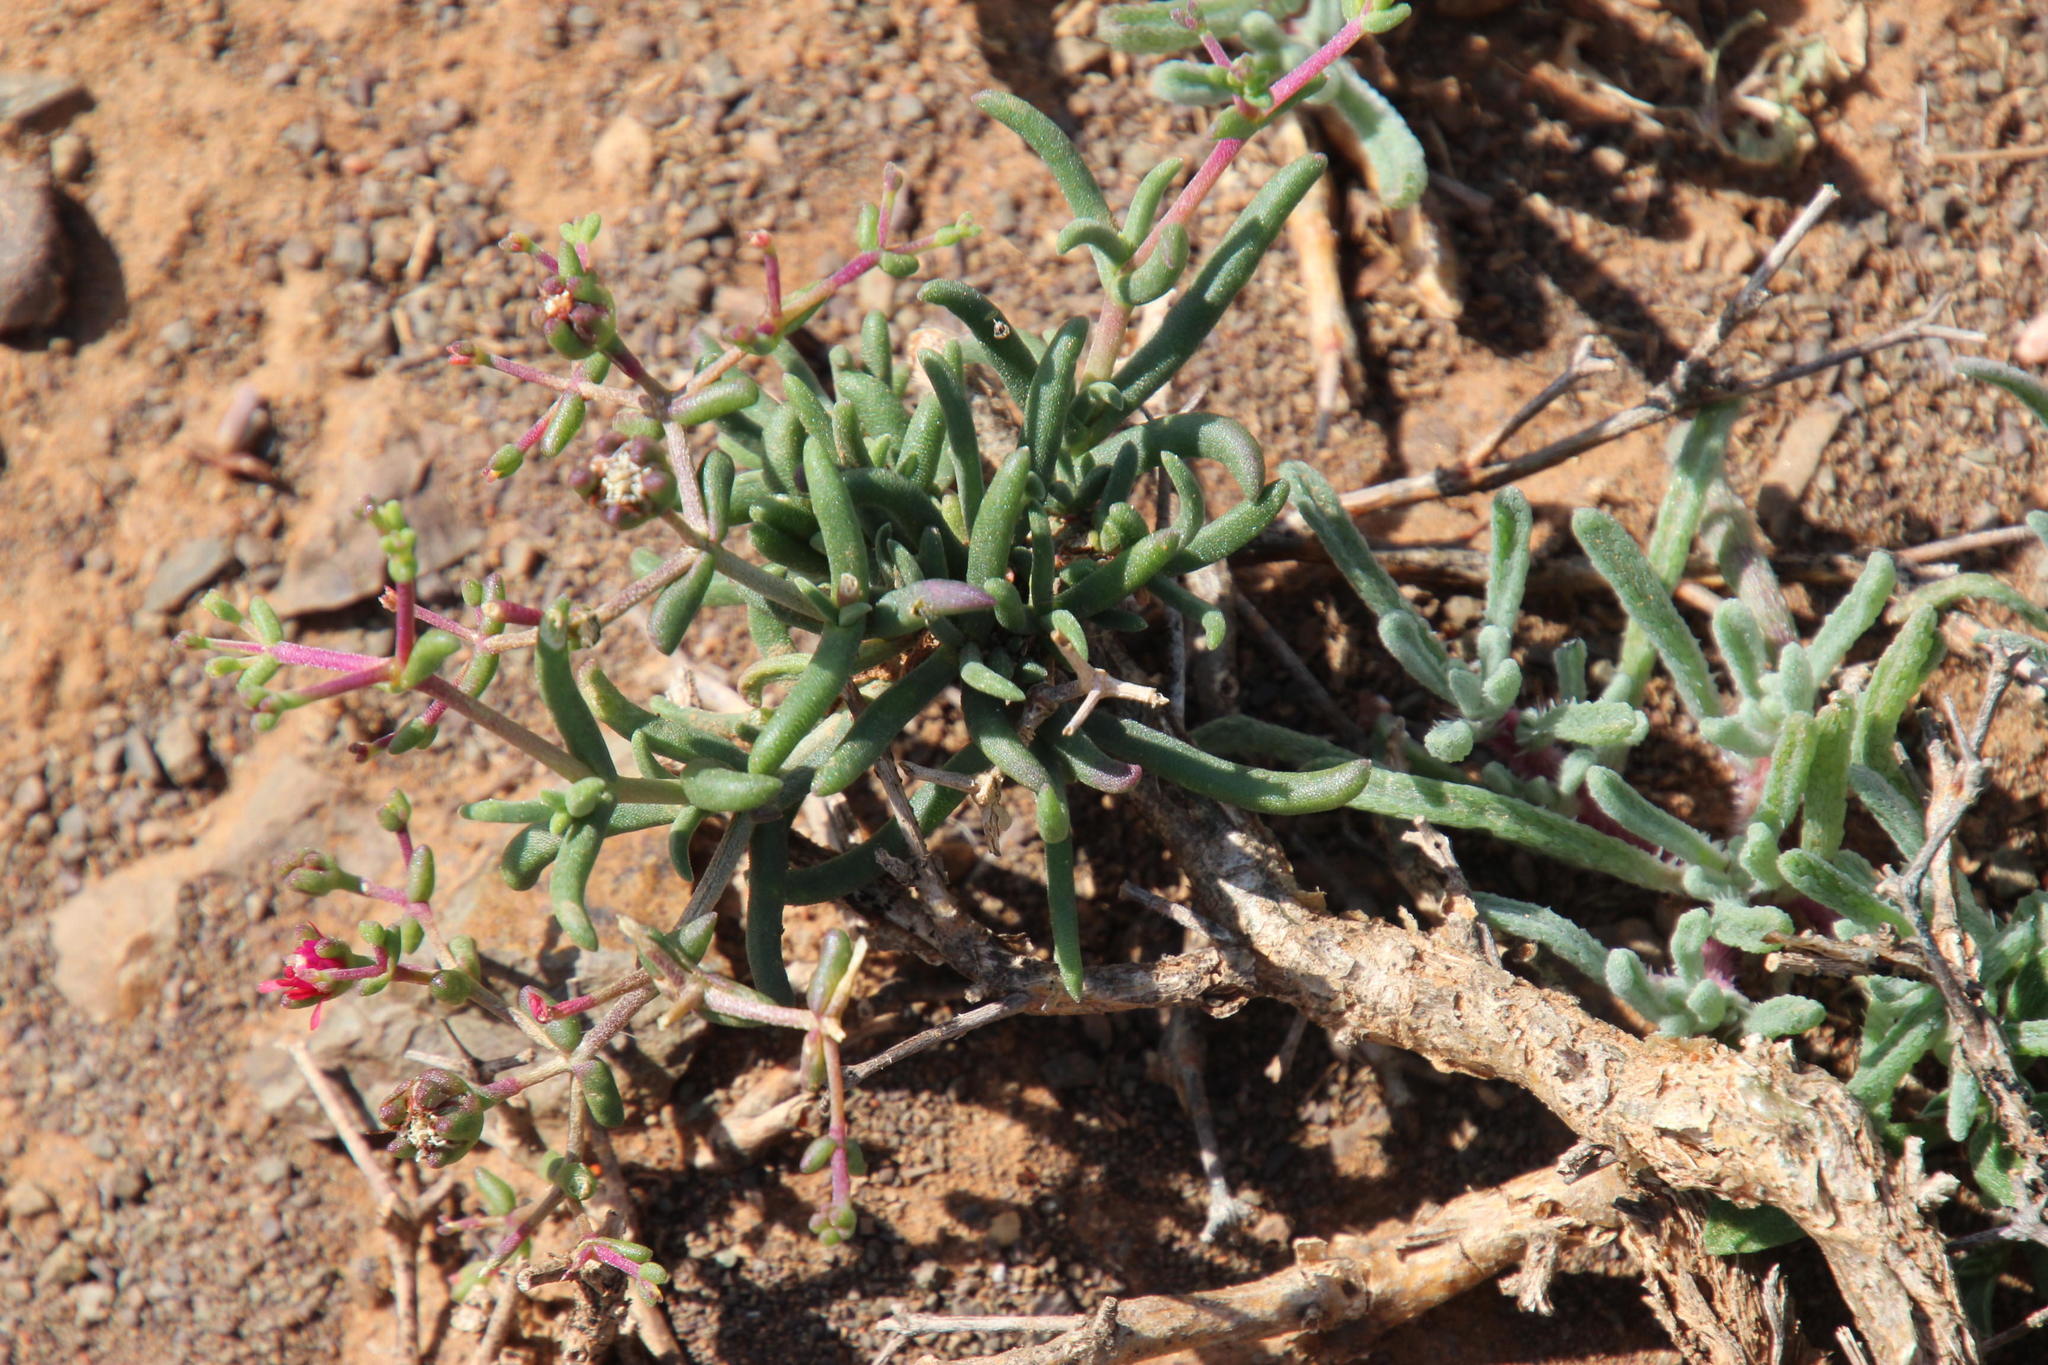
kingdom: Plantae
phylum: Tracheophyta
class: Magnoliopsida
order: Caryophyllales
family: Aizoaceae
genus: Mestoklema
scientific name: Mestoklema tuberosum
